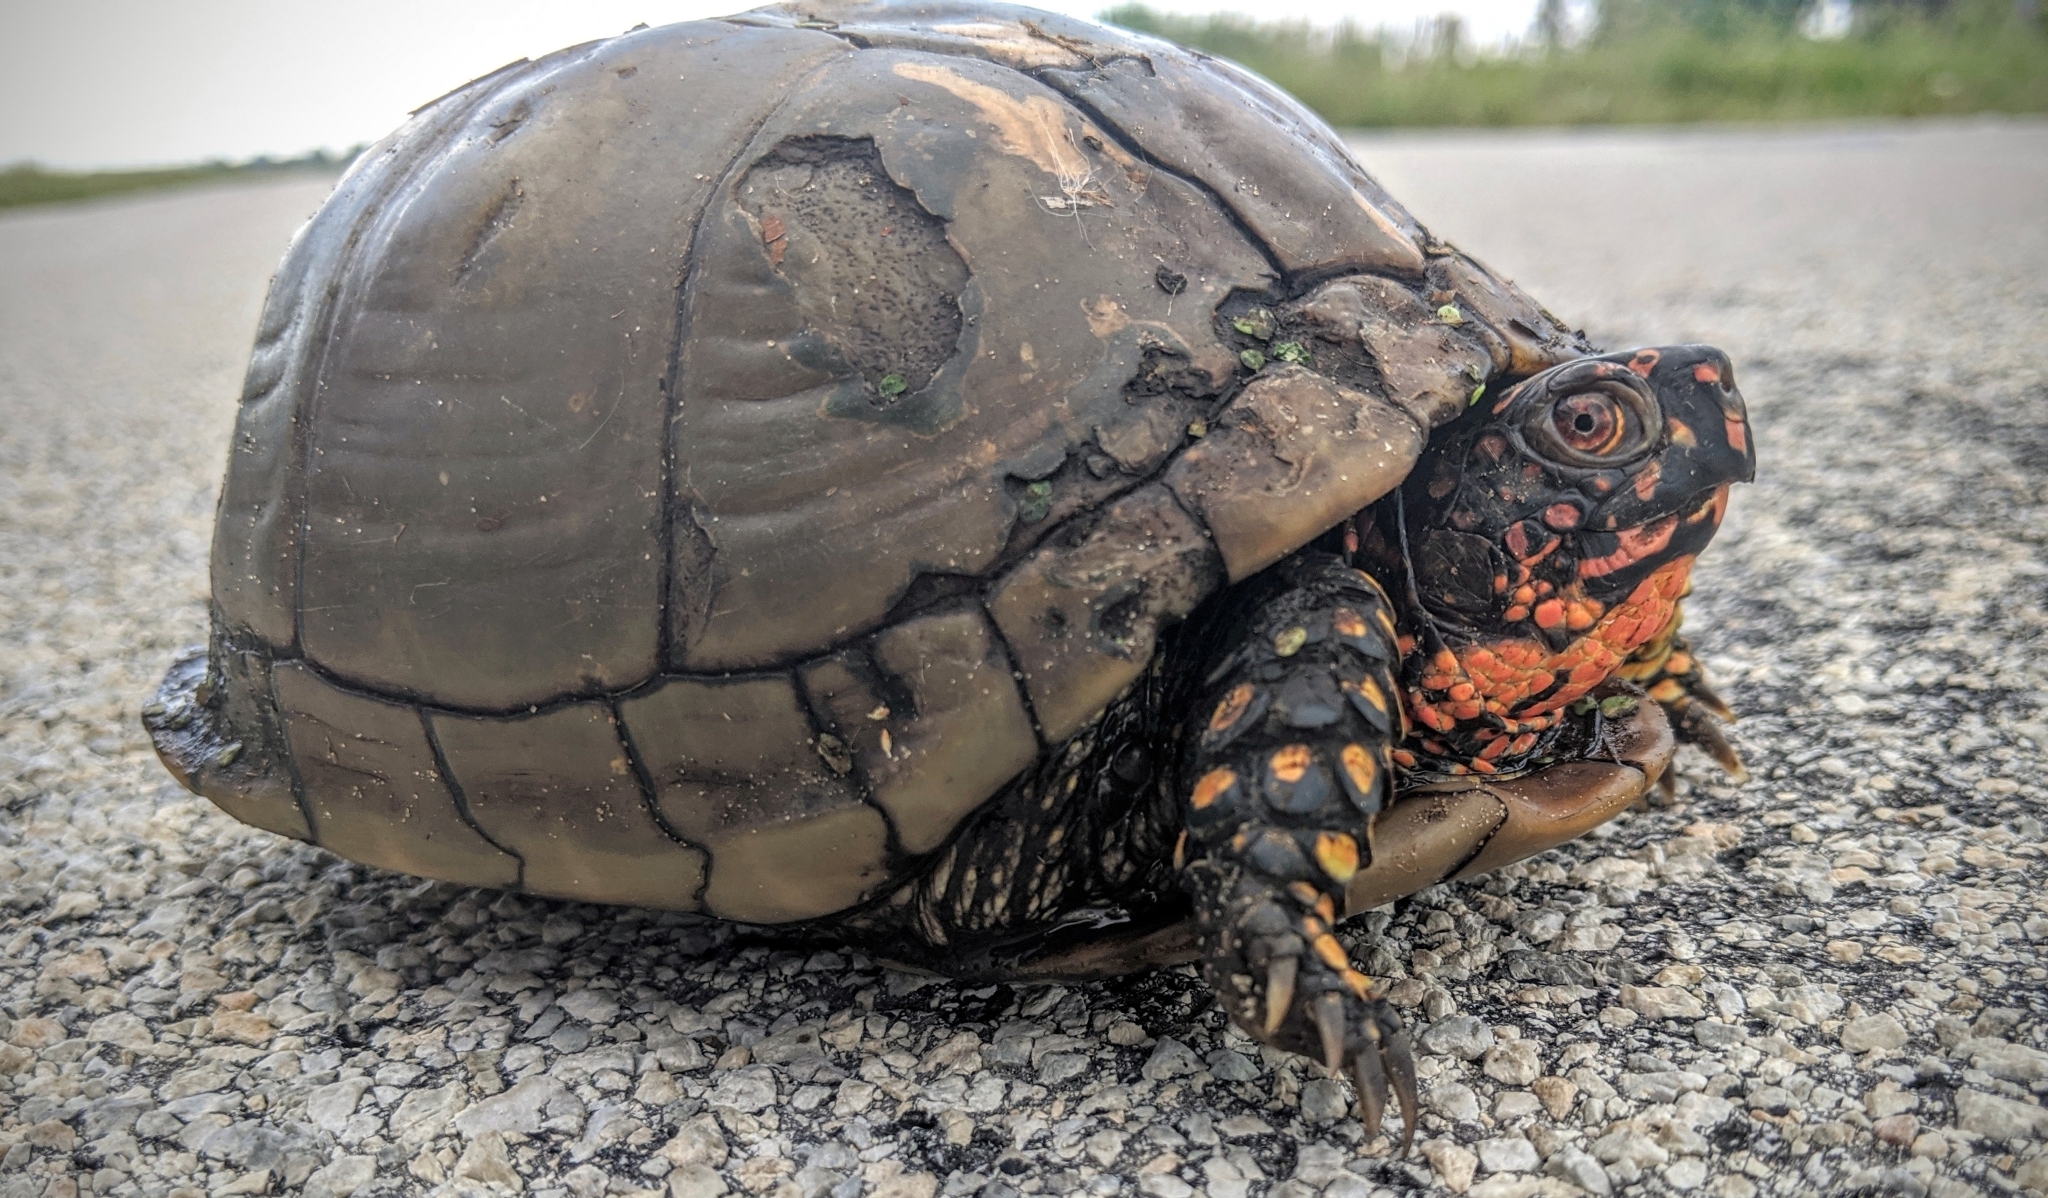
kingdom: Animalia
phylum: Chordata
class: Testudines
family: Emydidae
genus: Terrapene
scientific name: Terrapene carolina
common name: Common box turtle
